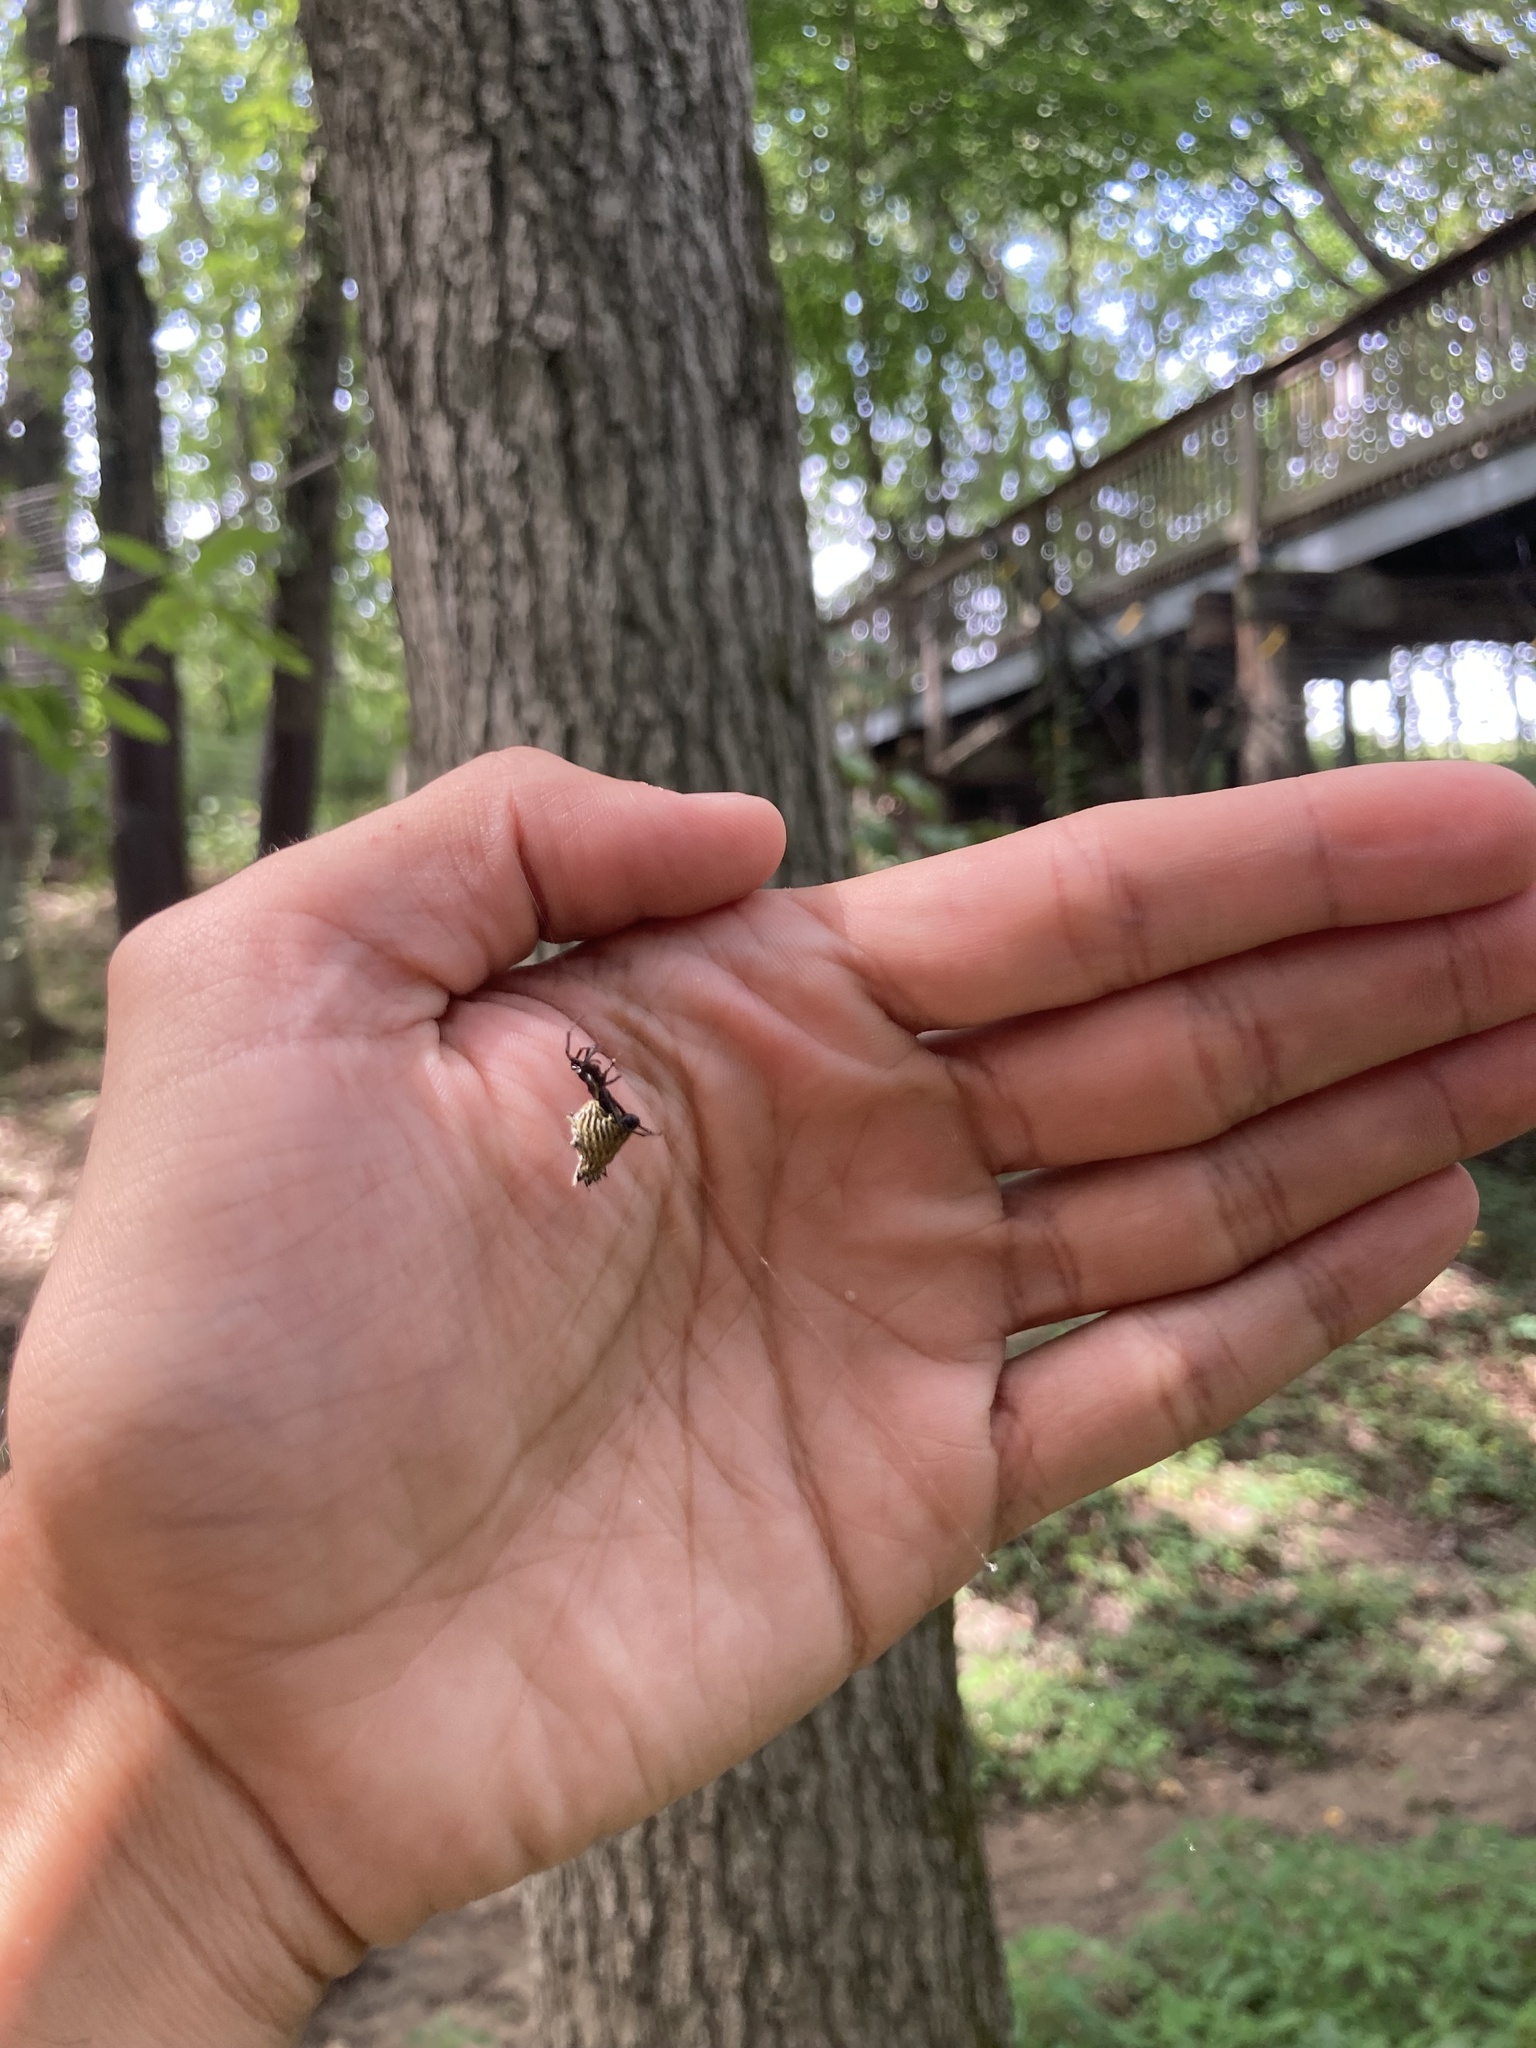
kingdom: Animalia
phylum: Arthropoda
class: Arachnida
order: Araneae
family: Araneidae
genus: Micrathena
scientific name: Micrathena gracilis
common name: Orb weavers
